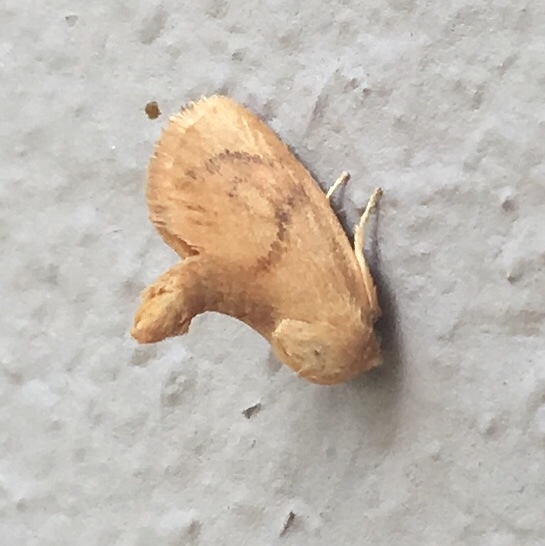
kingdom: Animalia
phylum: Arthropoda
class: Insecta
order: Lepidoptera
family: Limacodidae
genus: Tortricidia
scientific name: Tortricidia pallida
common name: Red-crossed button slug moth
